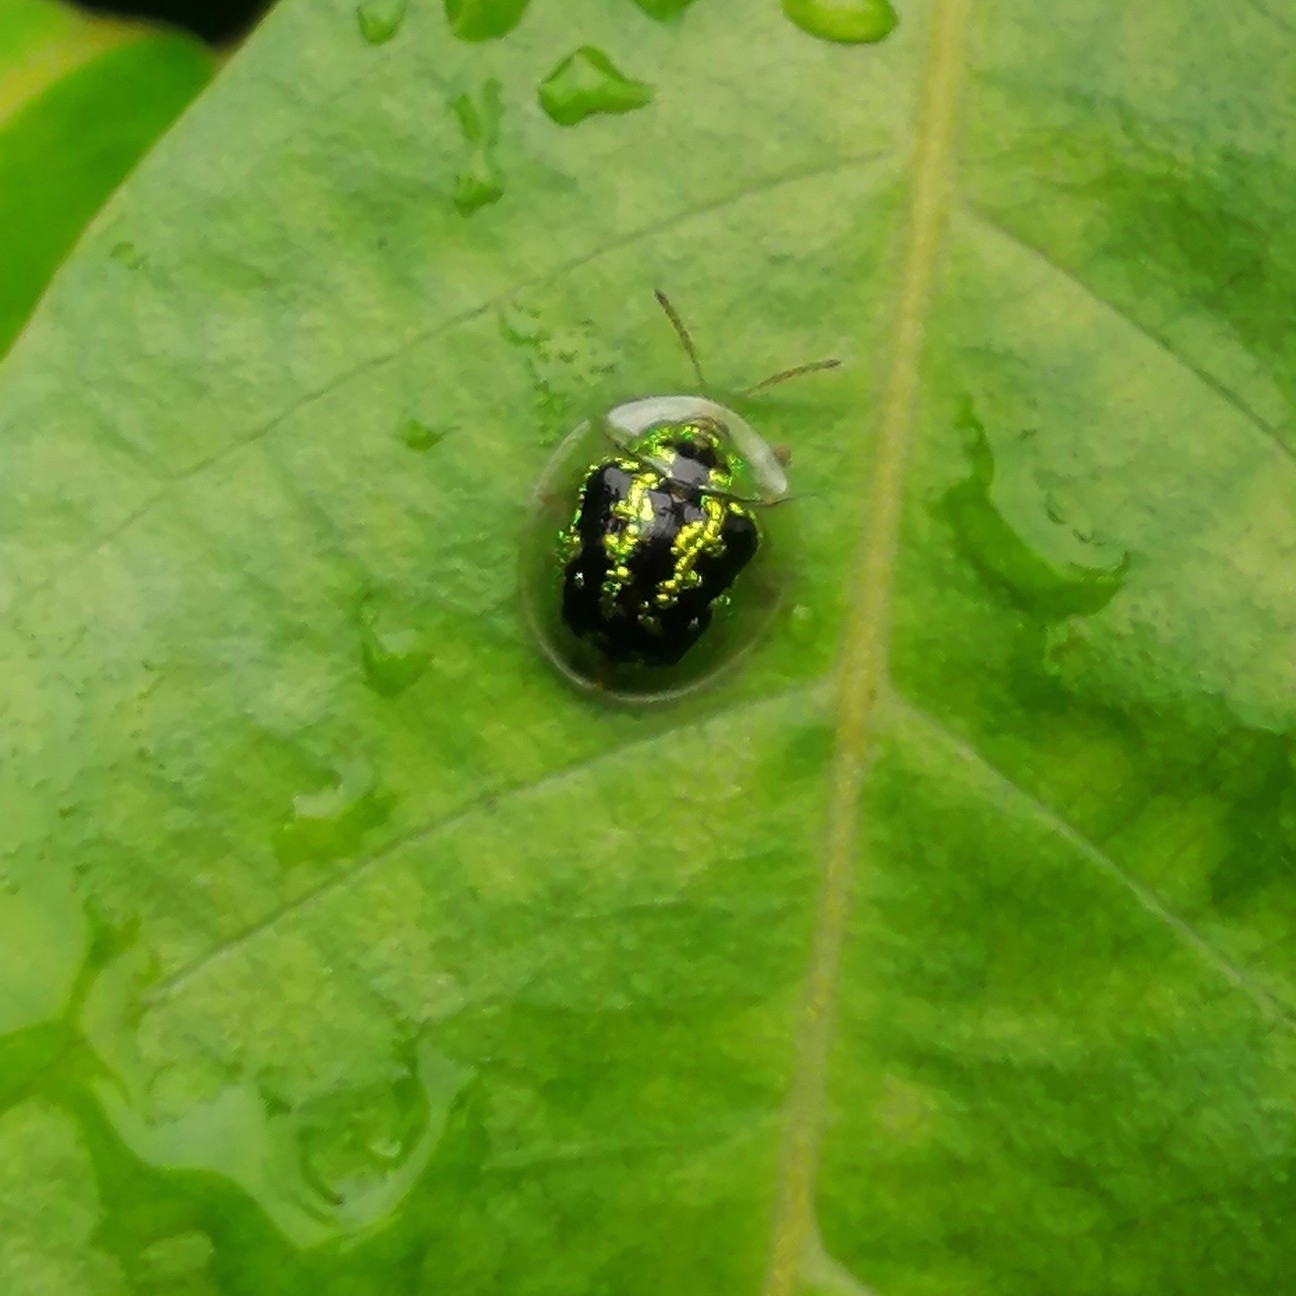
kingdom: Animalia
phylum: Arthropoda
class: Insecta
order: Coleoptera
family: Chrysomelidae
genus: Cassida
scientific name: Cassida circumdata
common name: Tortoise beetle
